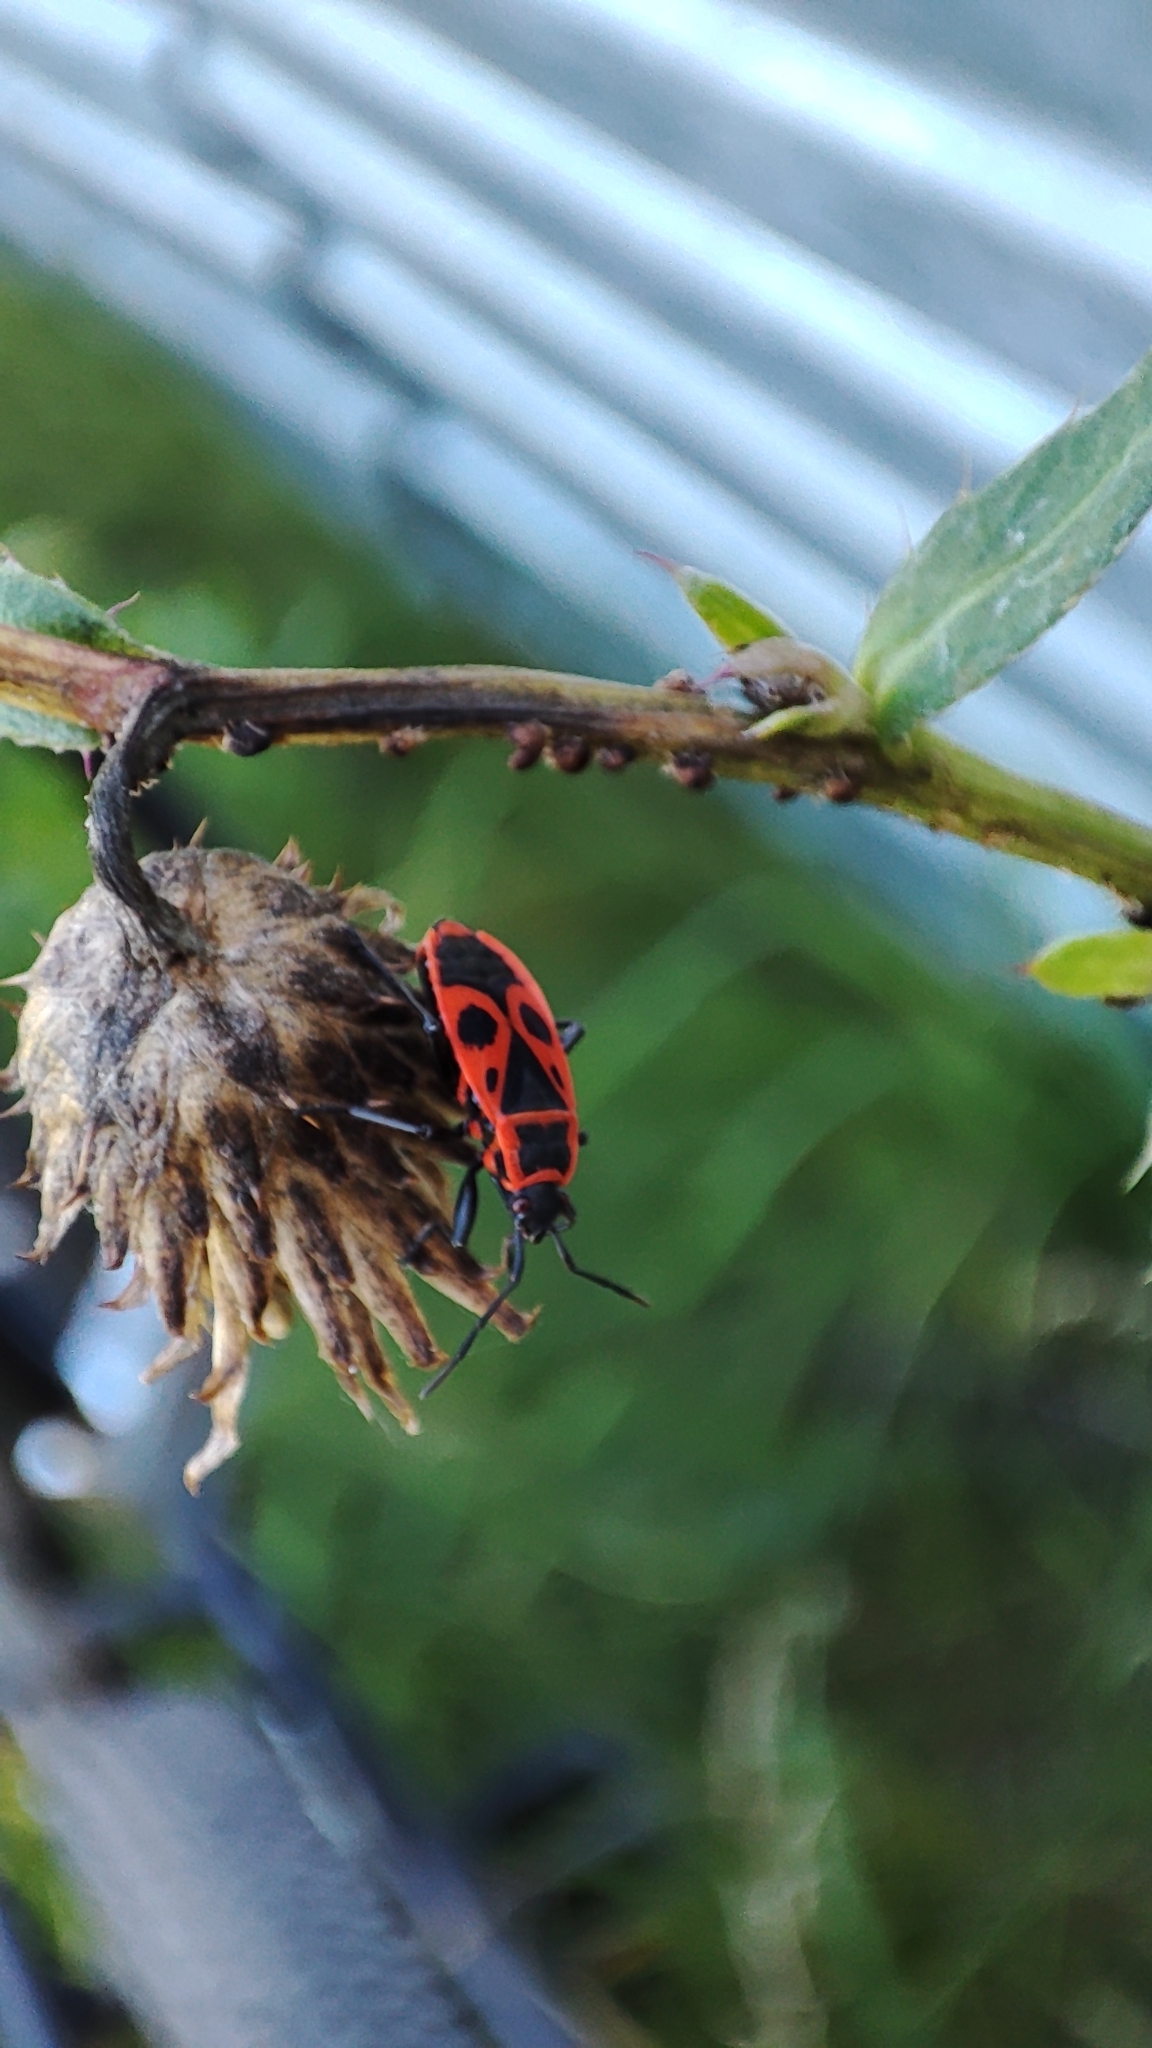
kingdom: Animalia
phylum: Arthropoda
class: Insecta
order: Hemiptera
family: Pyrrhocoridae
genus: Pyrrhocoris
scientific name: Pyrrhocoris apterus
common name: Firebug
